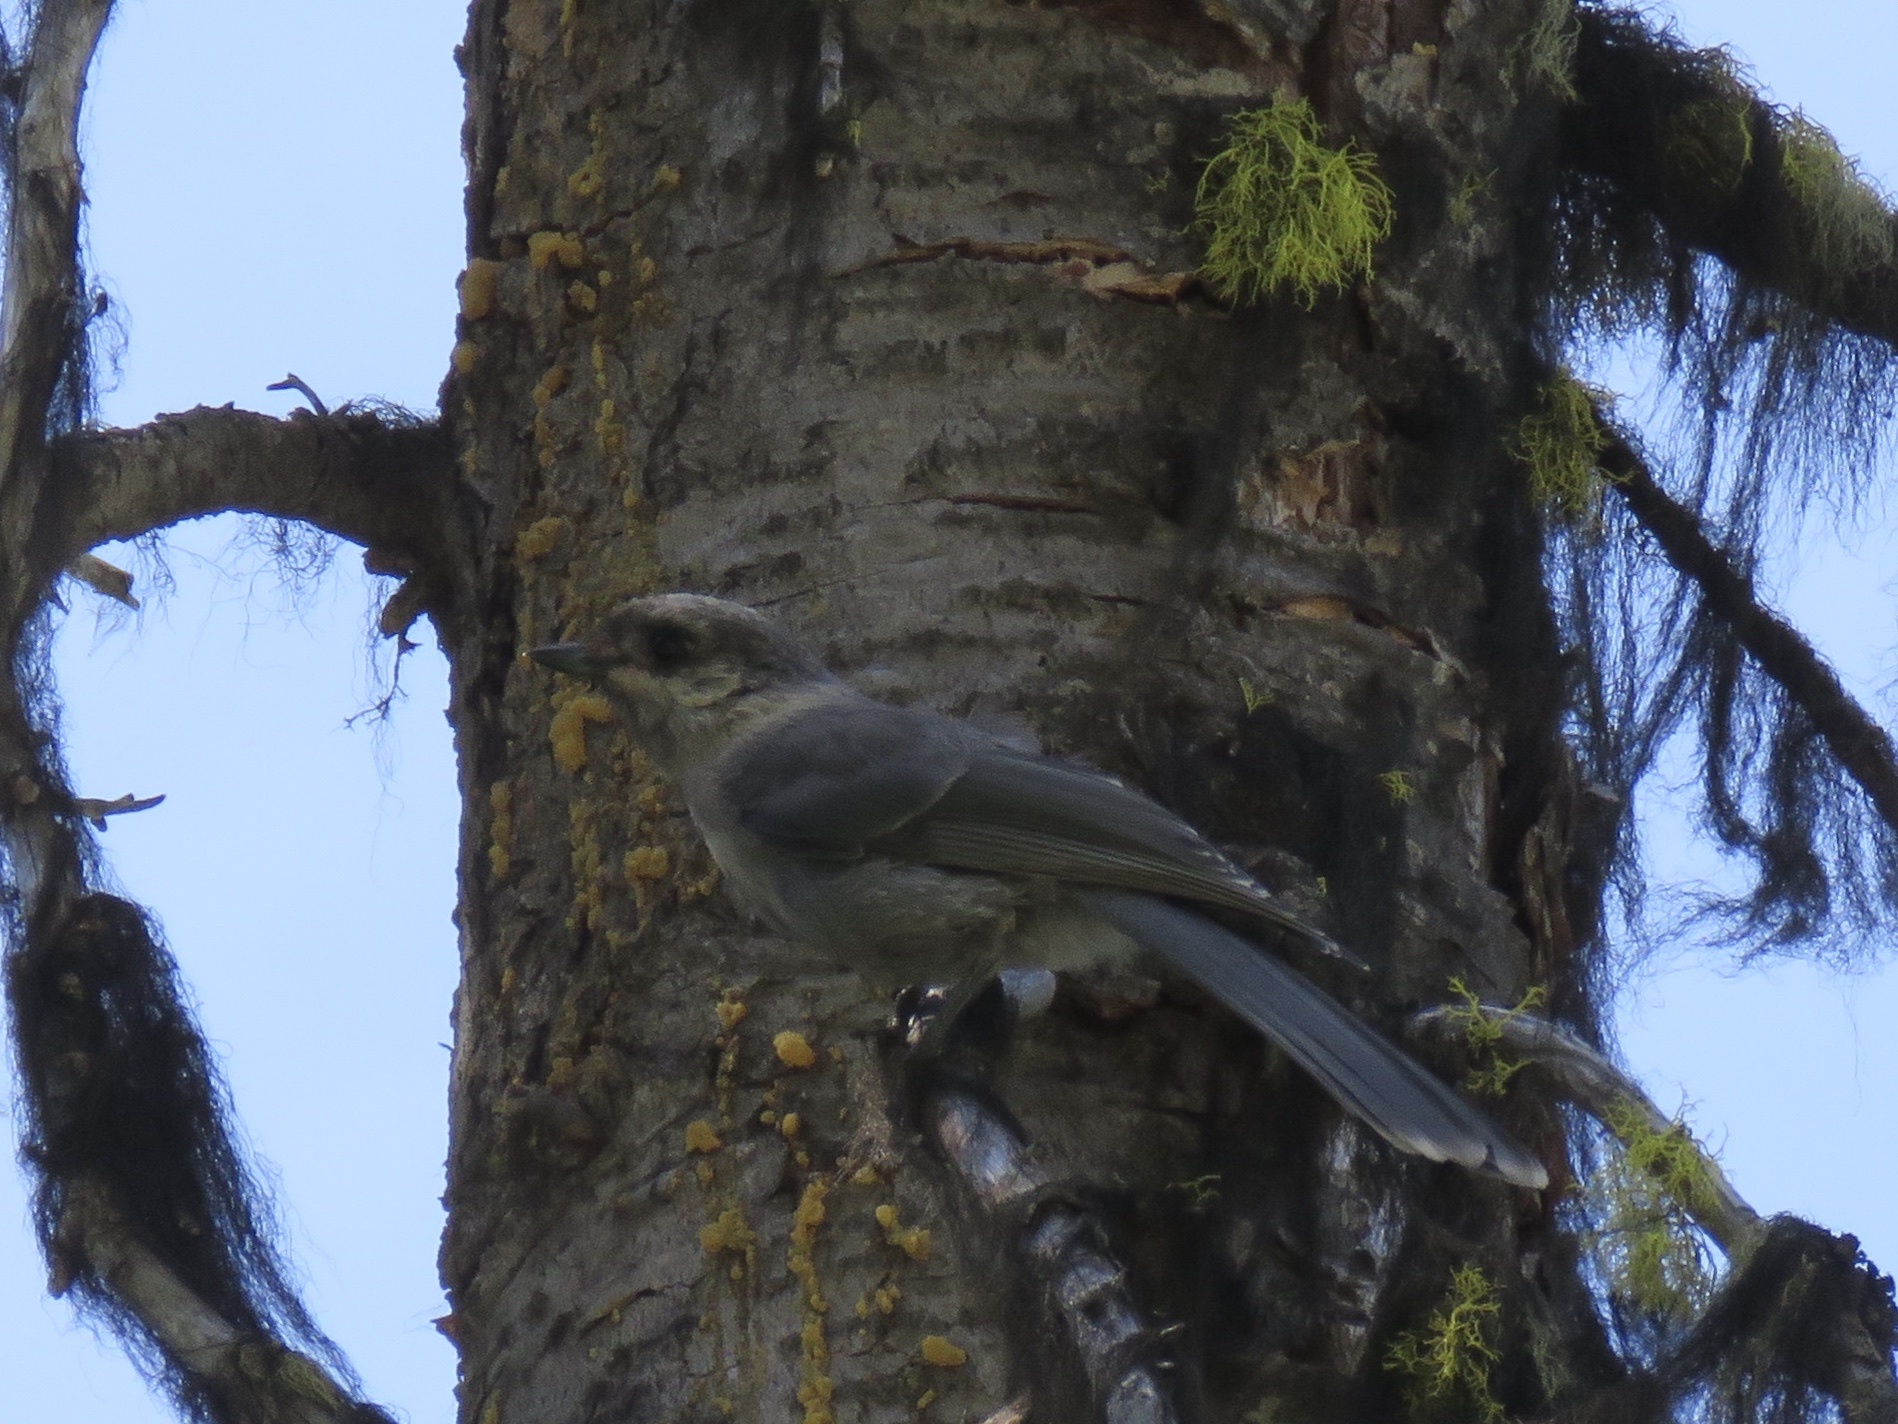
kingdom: Animalia
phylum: Chordata
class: Aves
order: Passeriformes
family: Corvidae
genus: Perisoreus
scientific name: Perisoreus canadensis
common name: Gray jay
